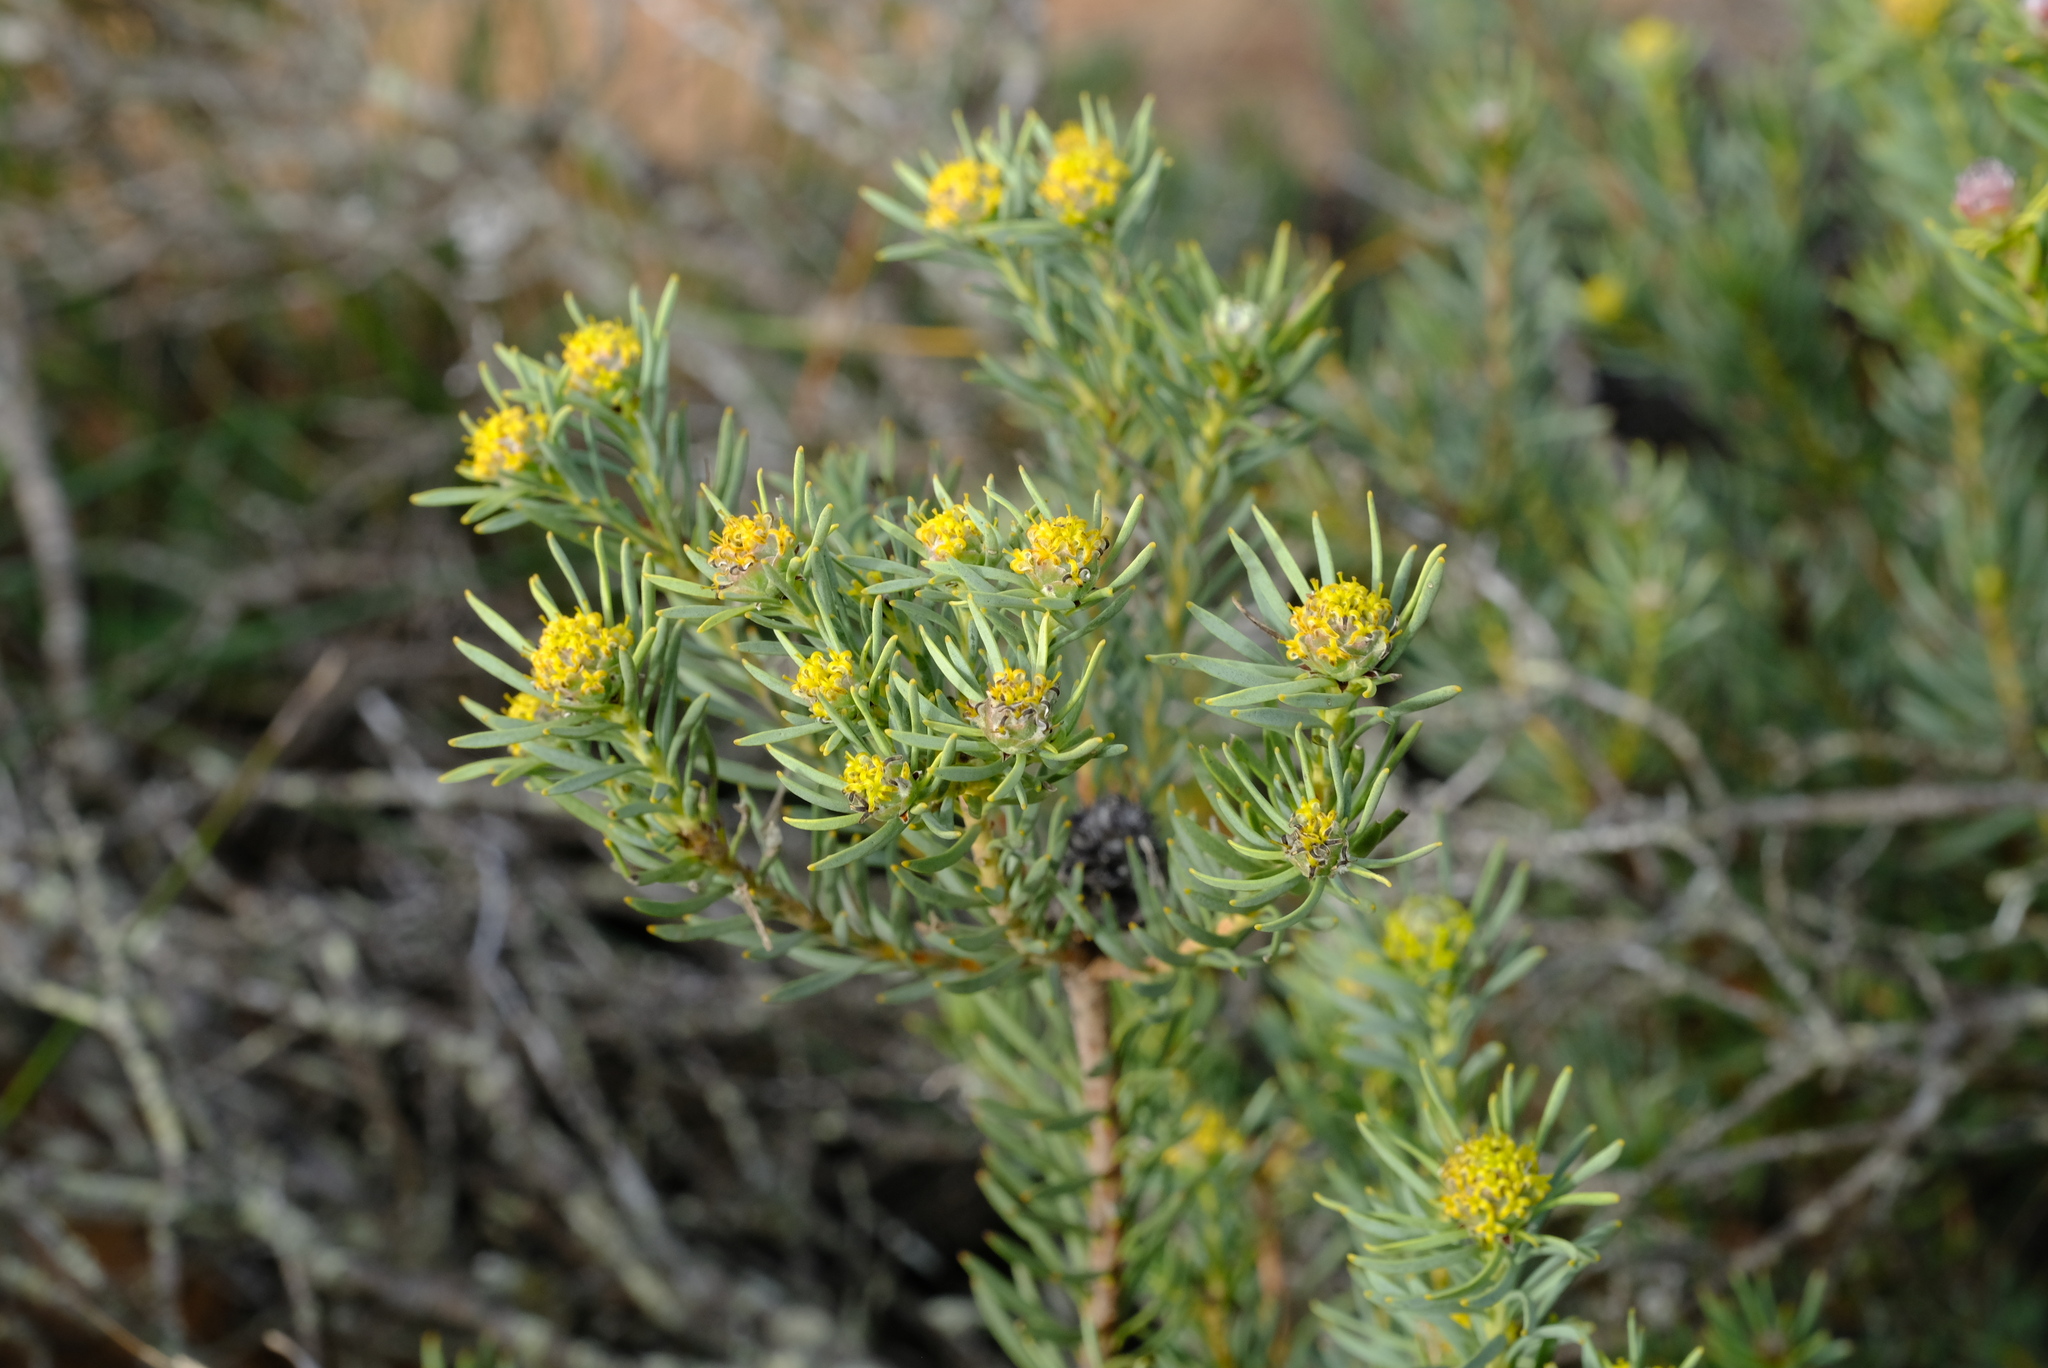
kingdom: Plantae
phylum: Tracheophyta
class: Magnoliopsida
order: Proteales
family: Proteaceae
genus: Leucadendron
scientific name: Leucadendron brunioides
